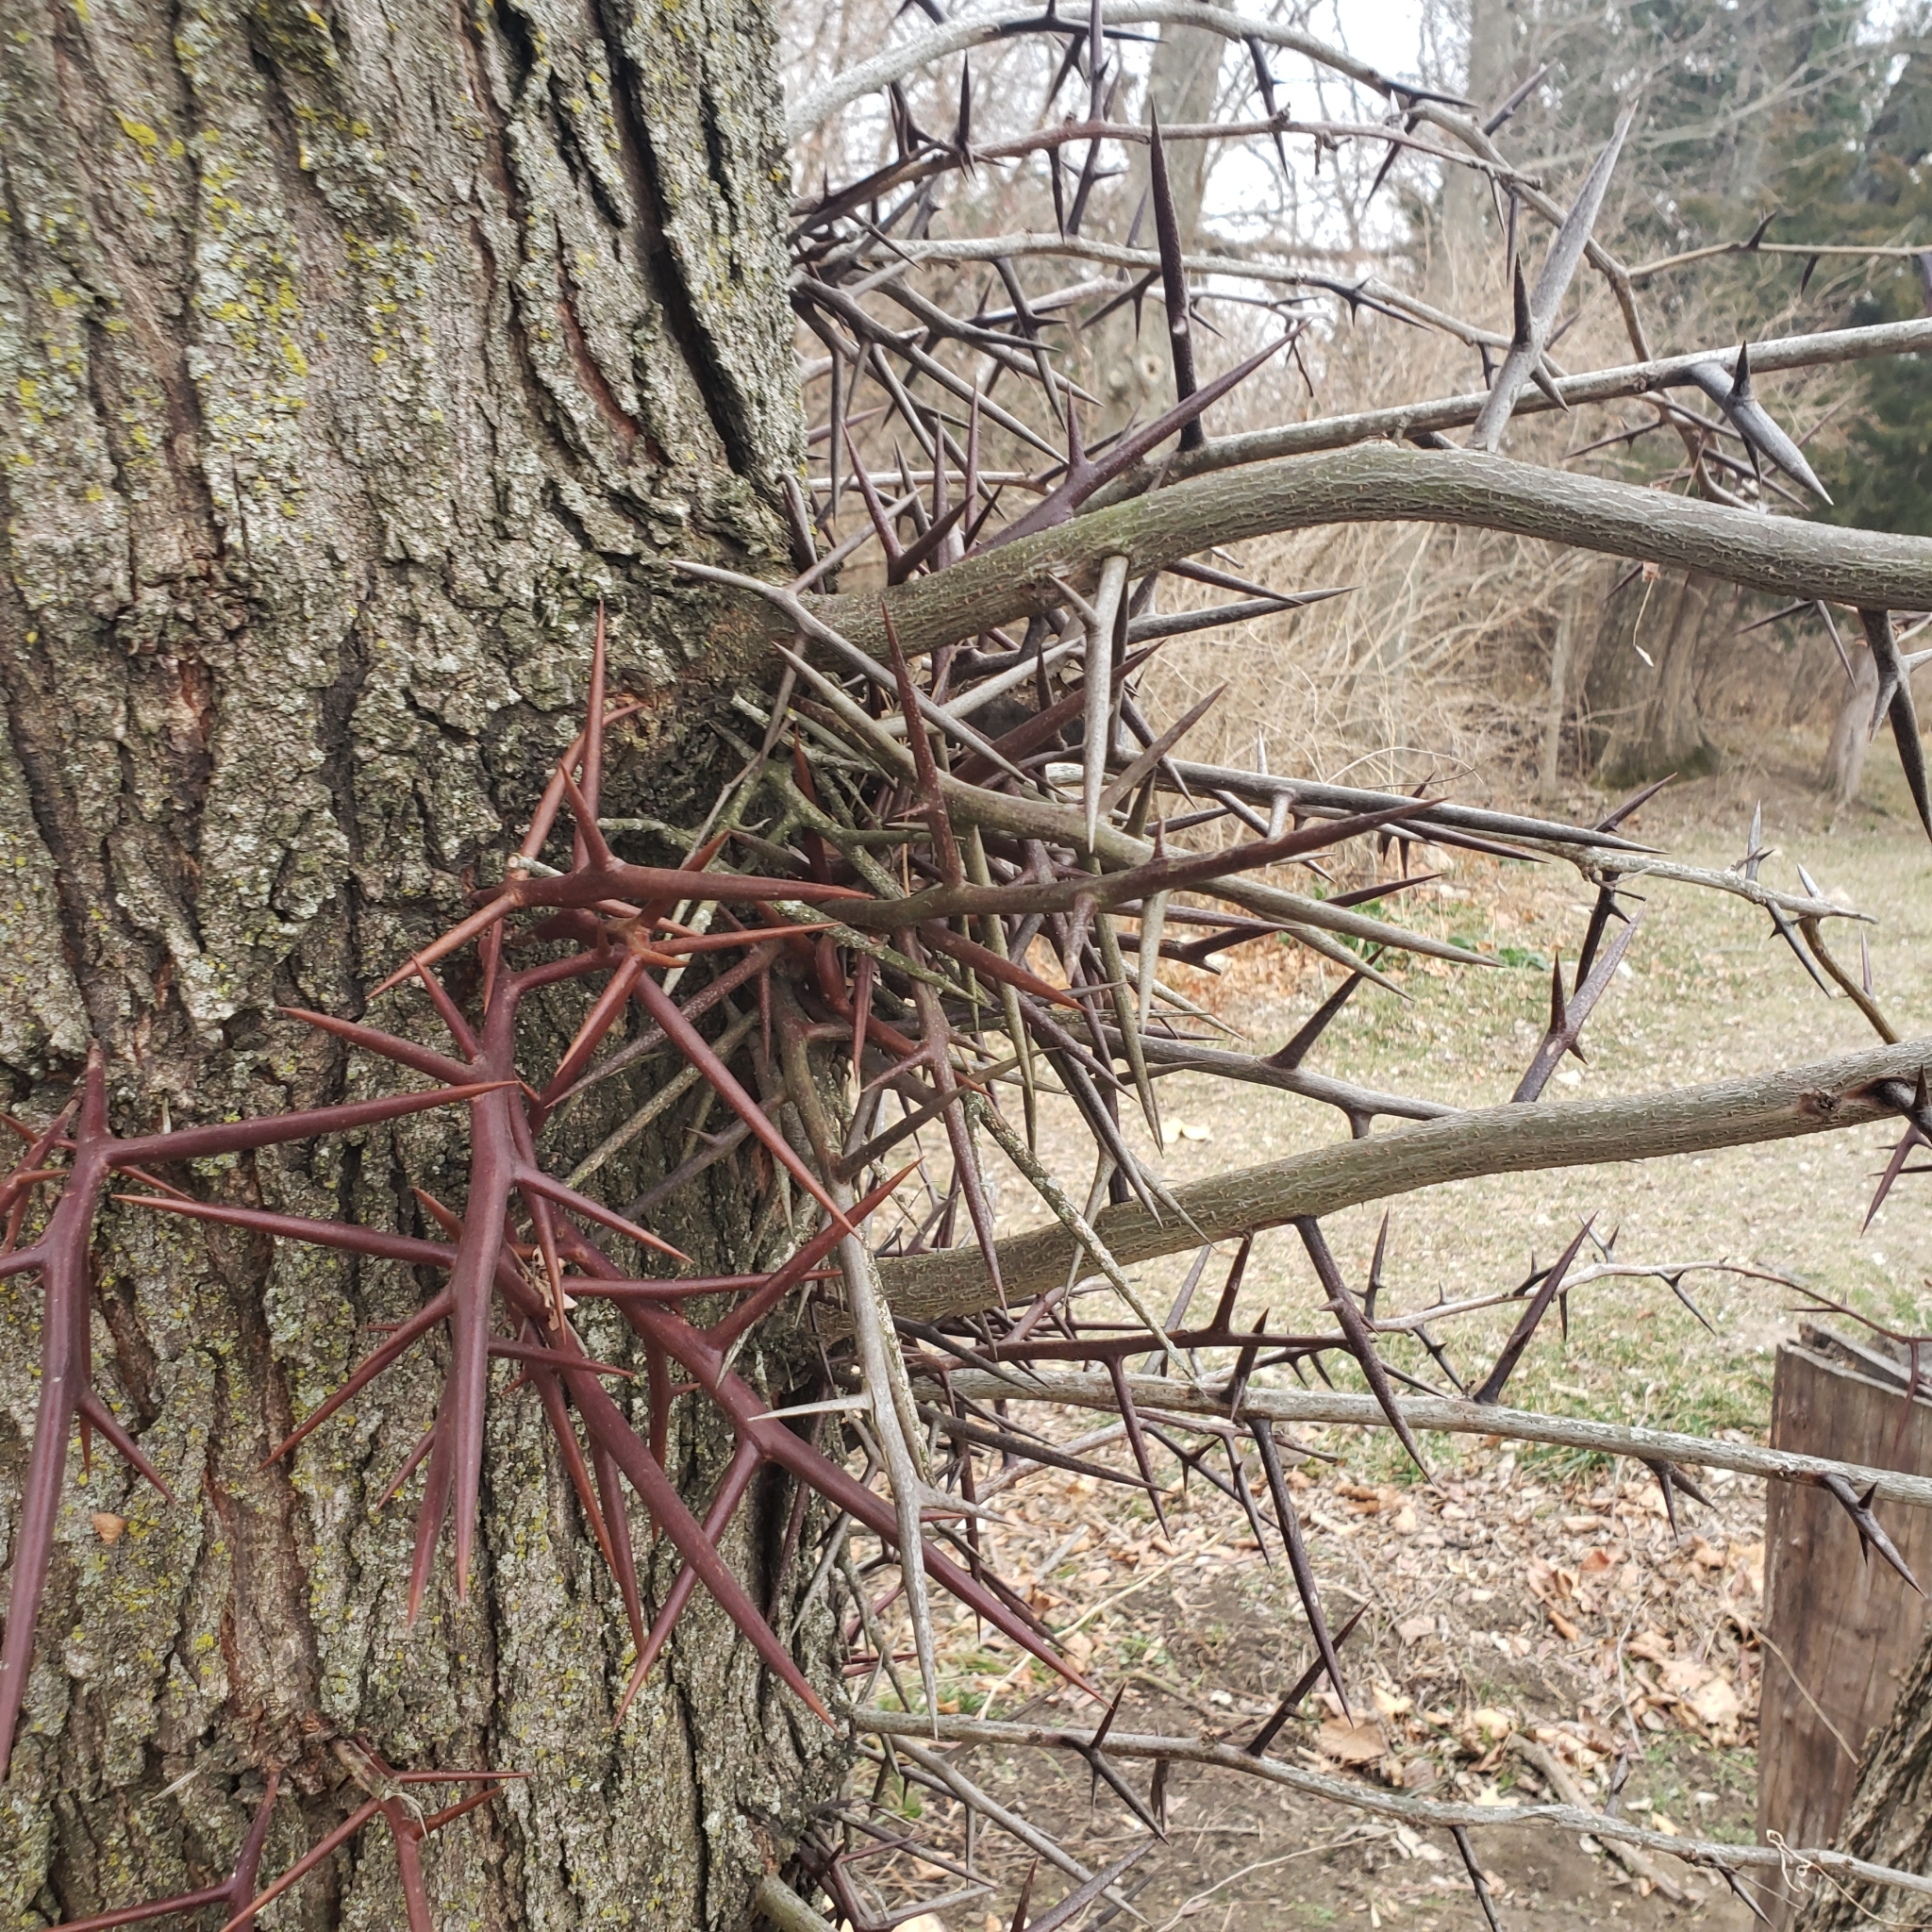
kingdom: Plantae
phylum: Tracheophyta
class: Magnoliopsida
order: Fabales
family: Fabaceae
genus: Gleditsia
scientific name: Gleditsia triacanthos
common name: Common honeylocust
